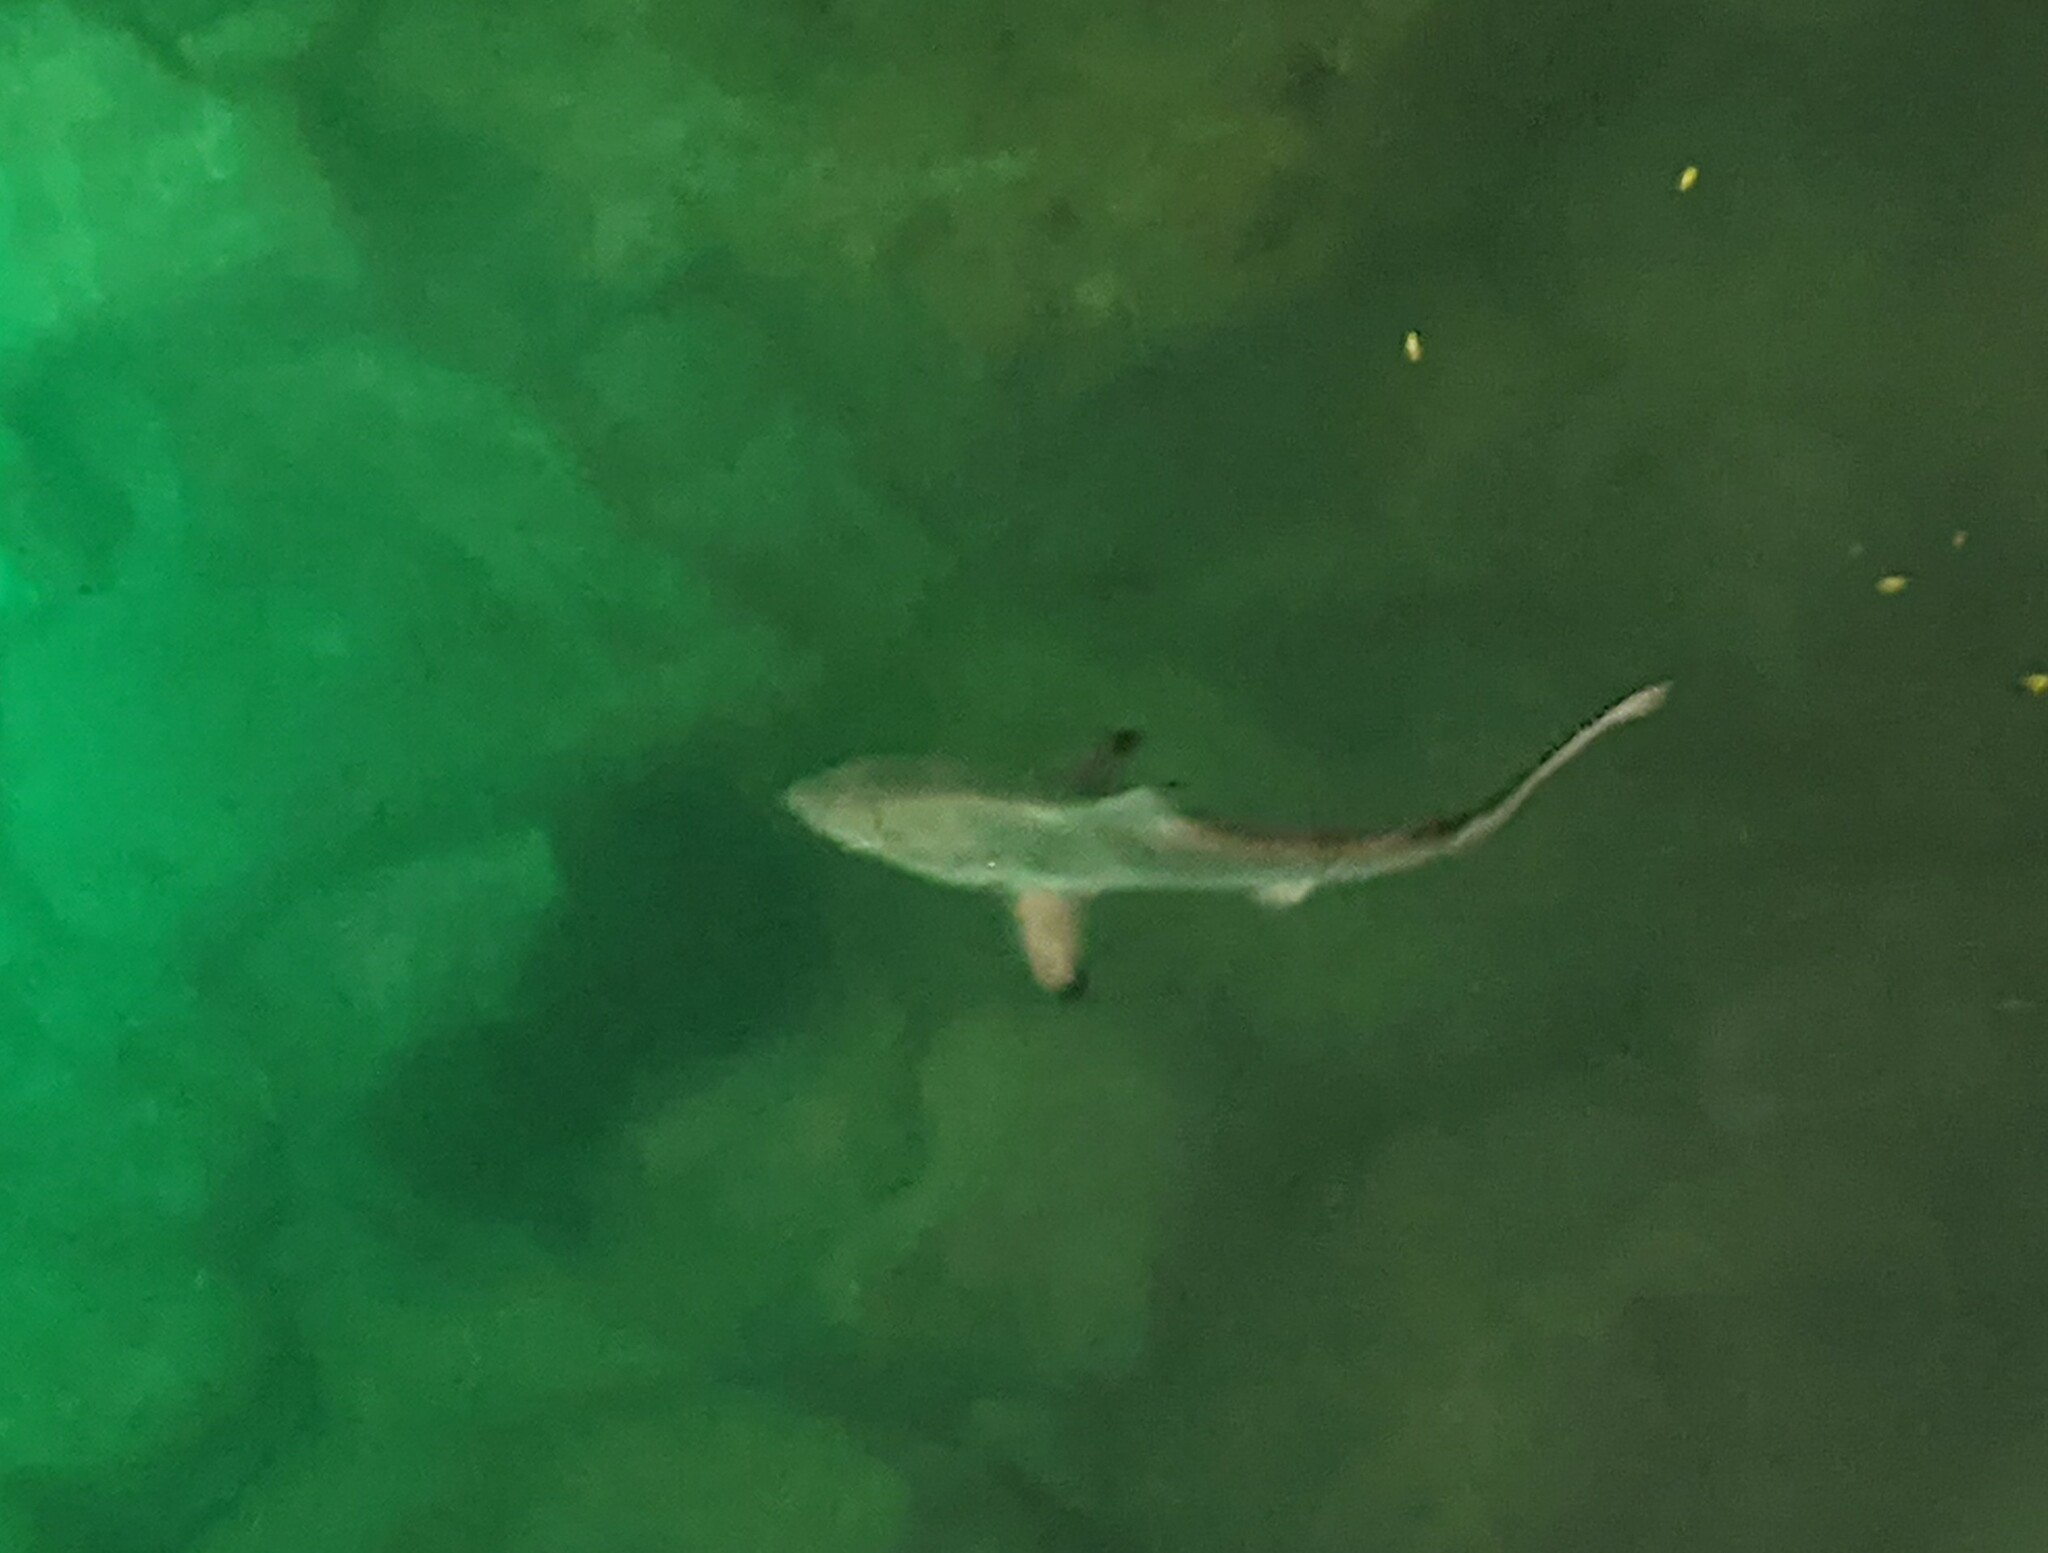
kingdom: Animalia
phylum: Chordata
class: Elasmobranchii
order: Carcharhiniformes
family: Carcharhinidae
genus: Carcharhinus
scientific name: Carcharhinus limbatus
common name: Blacktip shark
